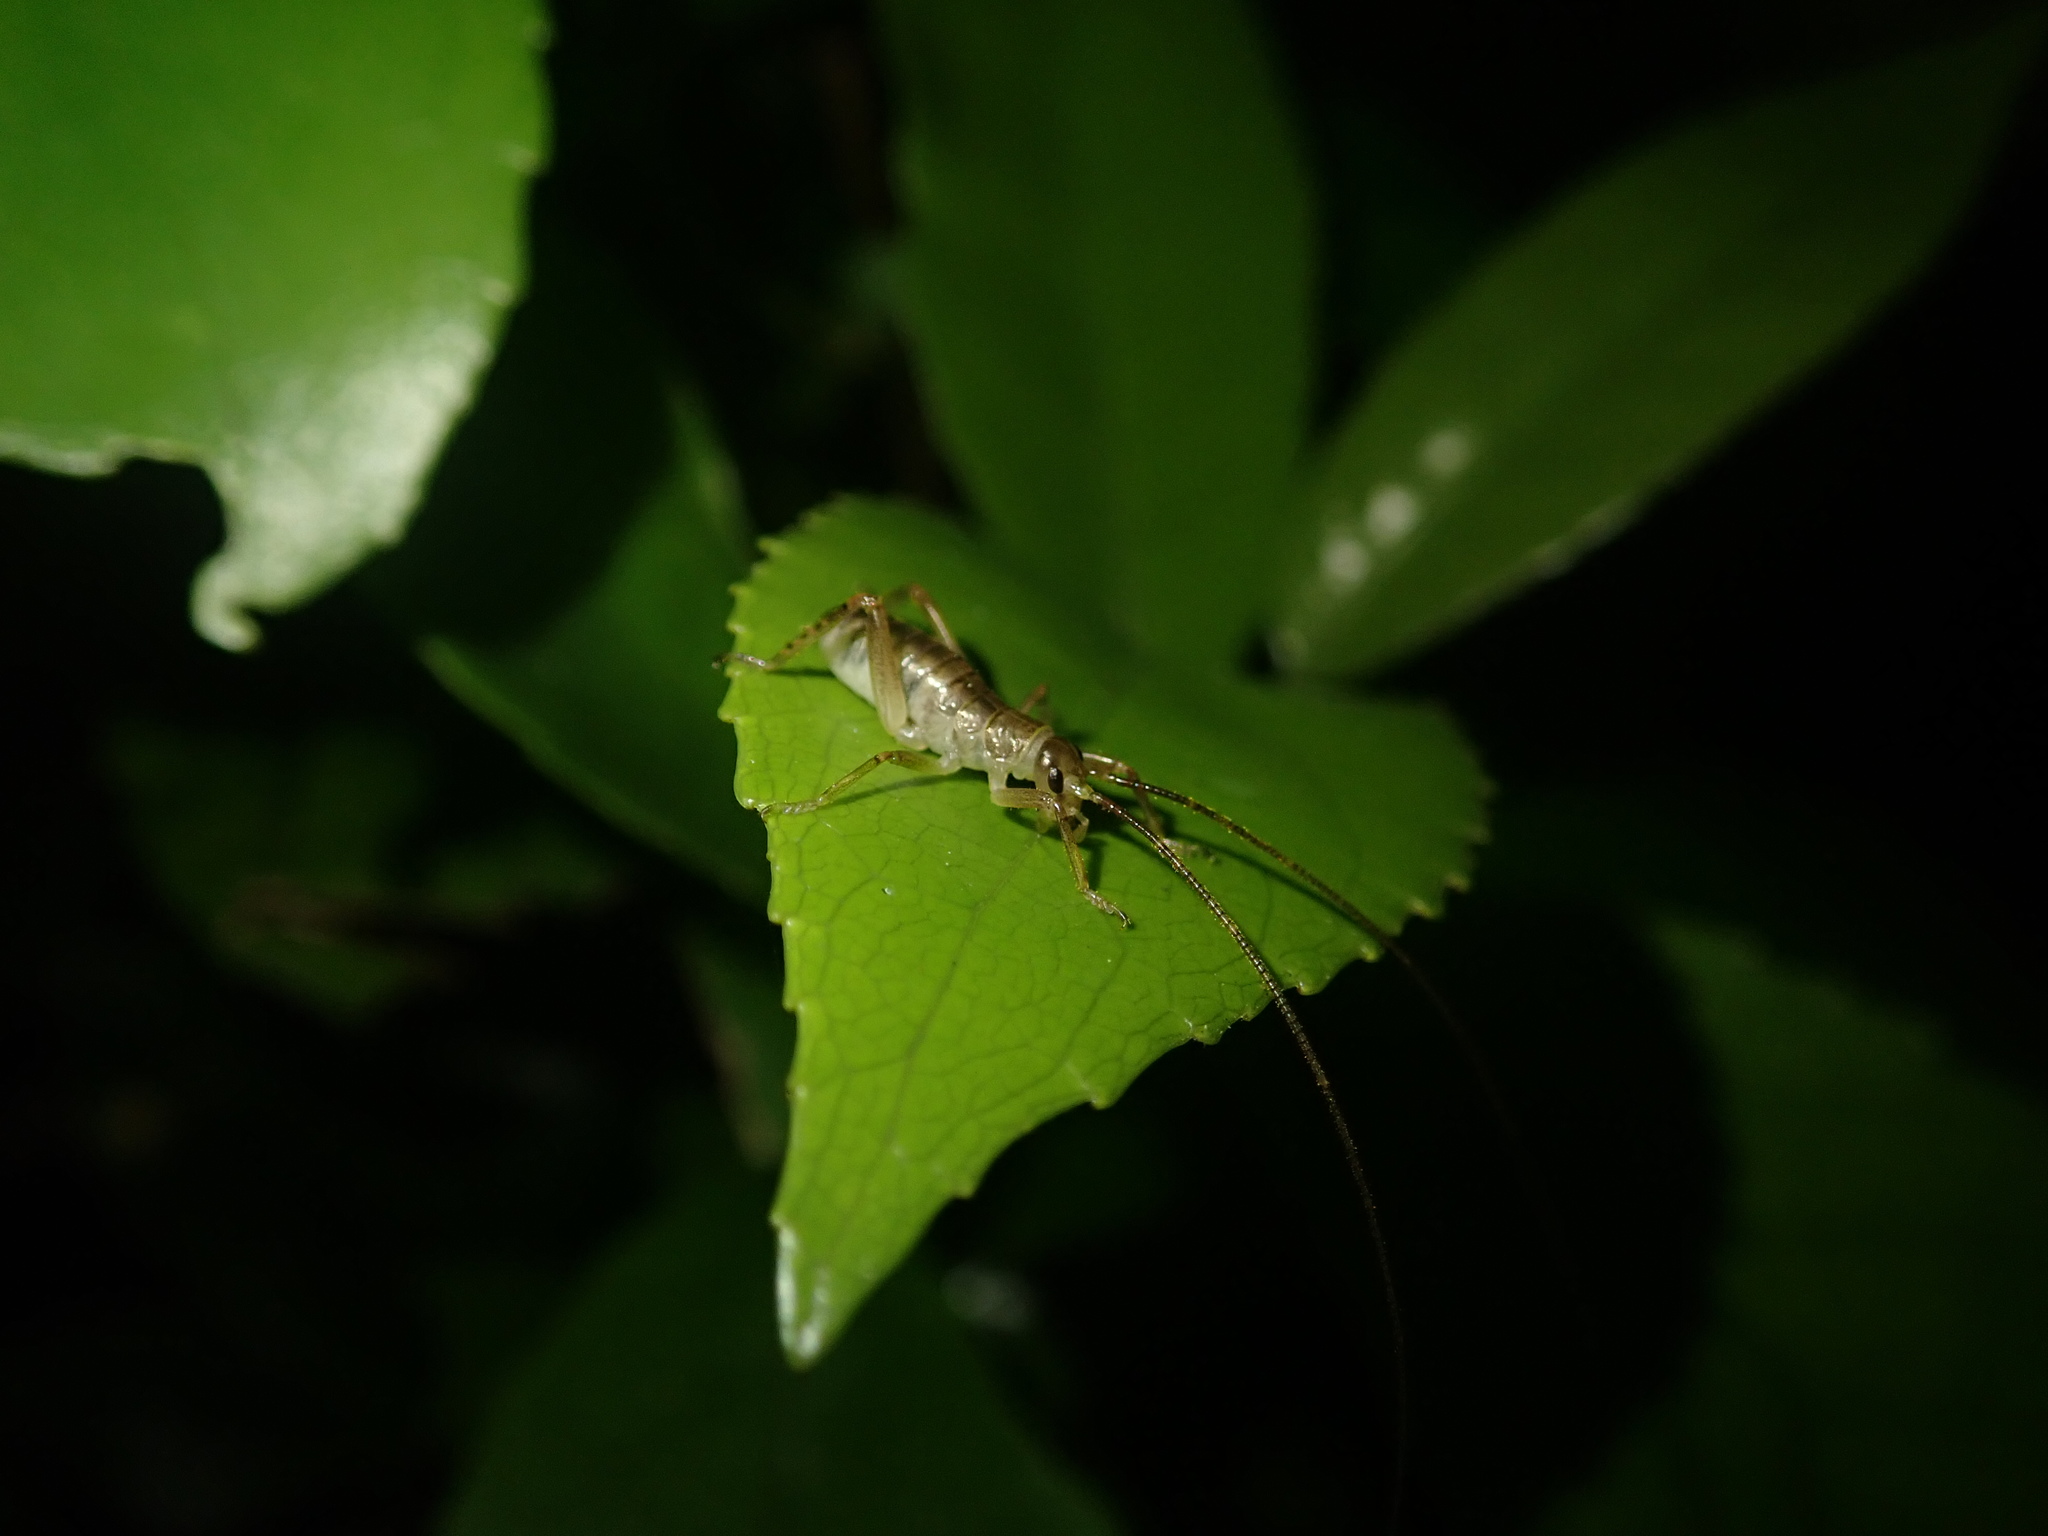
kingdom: Animalia
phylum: Arthropoda
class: Insecta
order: Orthoptera
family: Anostostomatidae
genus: Hemideina
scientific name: Hemideina crassidens
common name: Wellington tree weta
